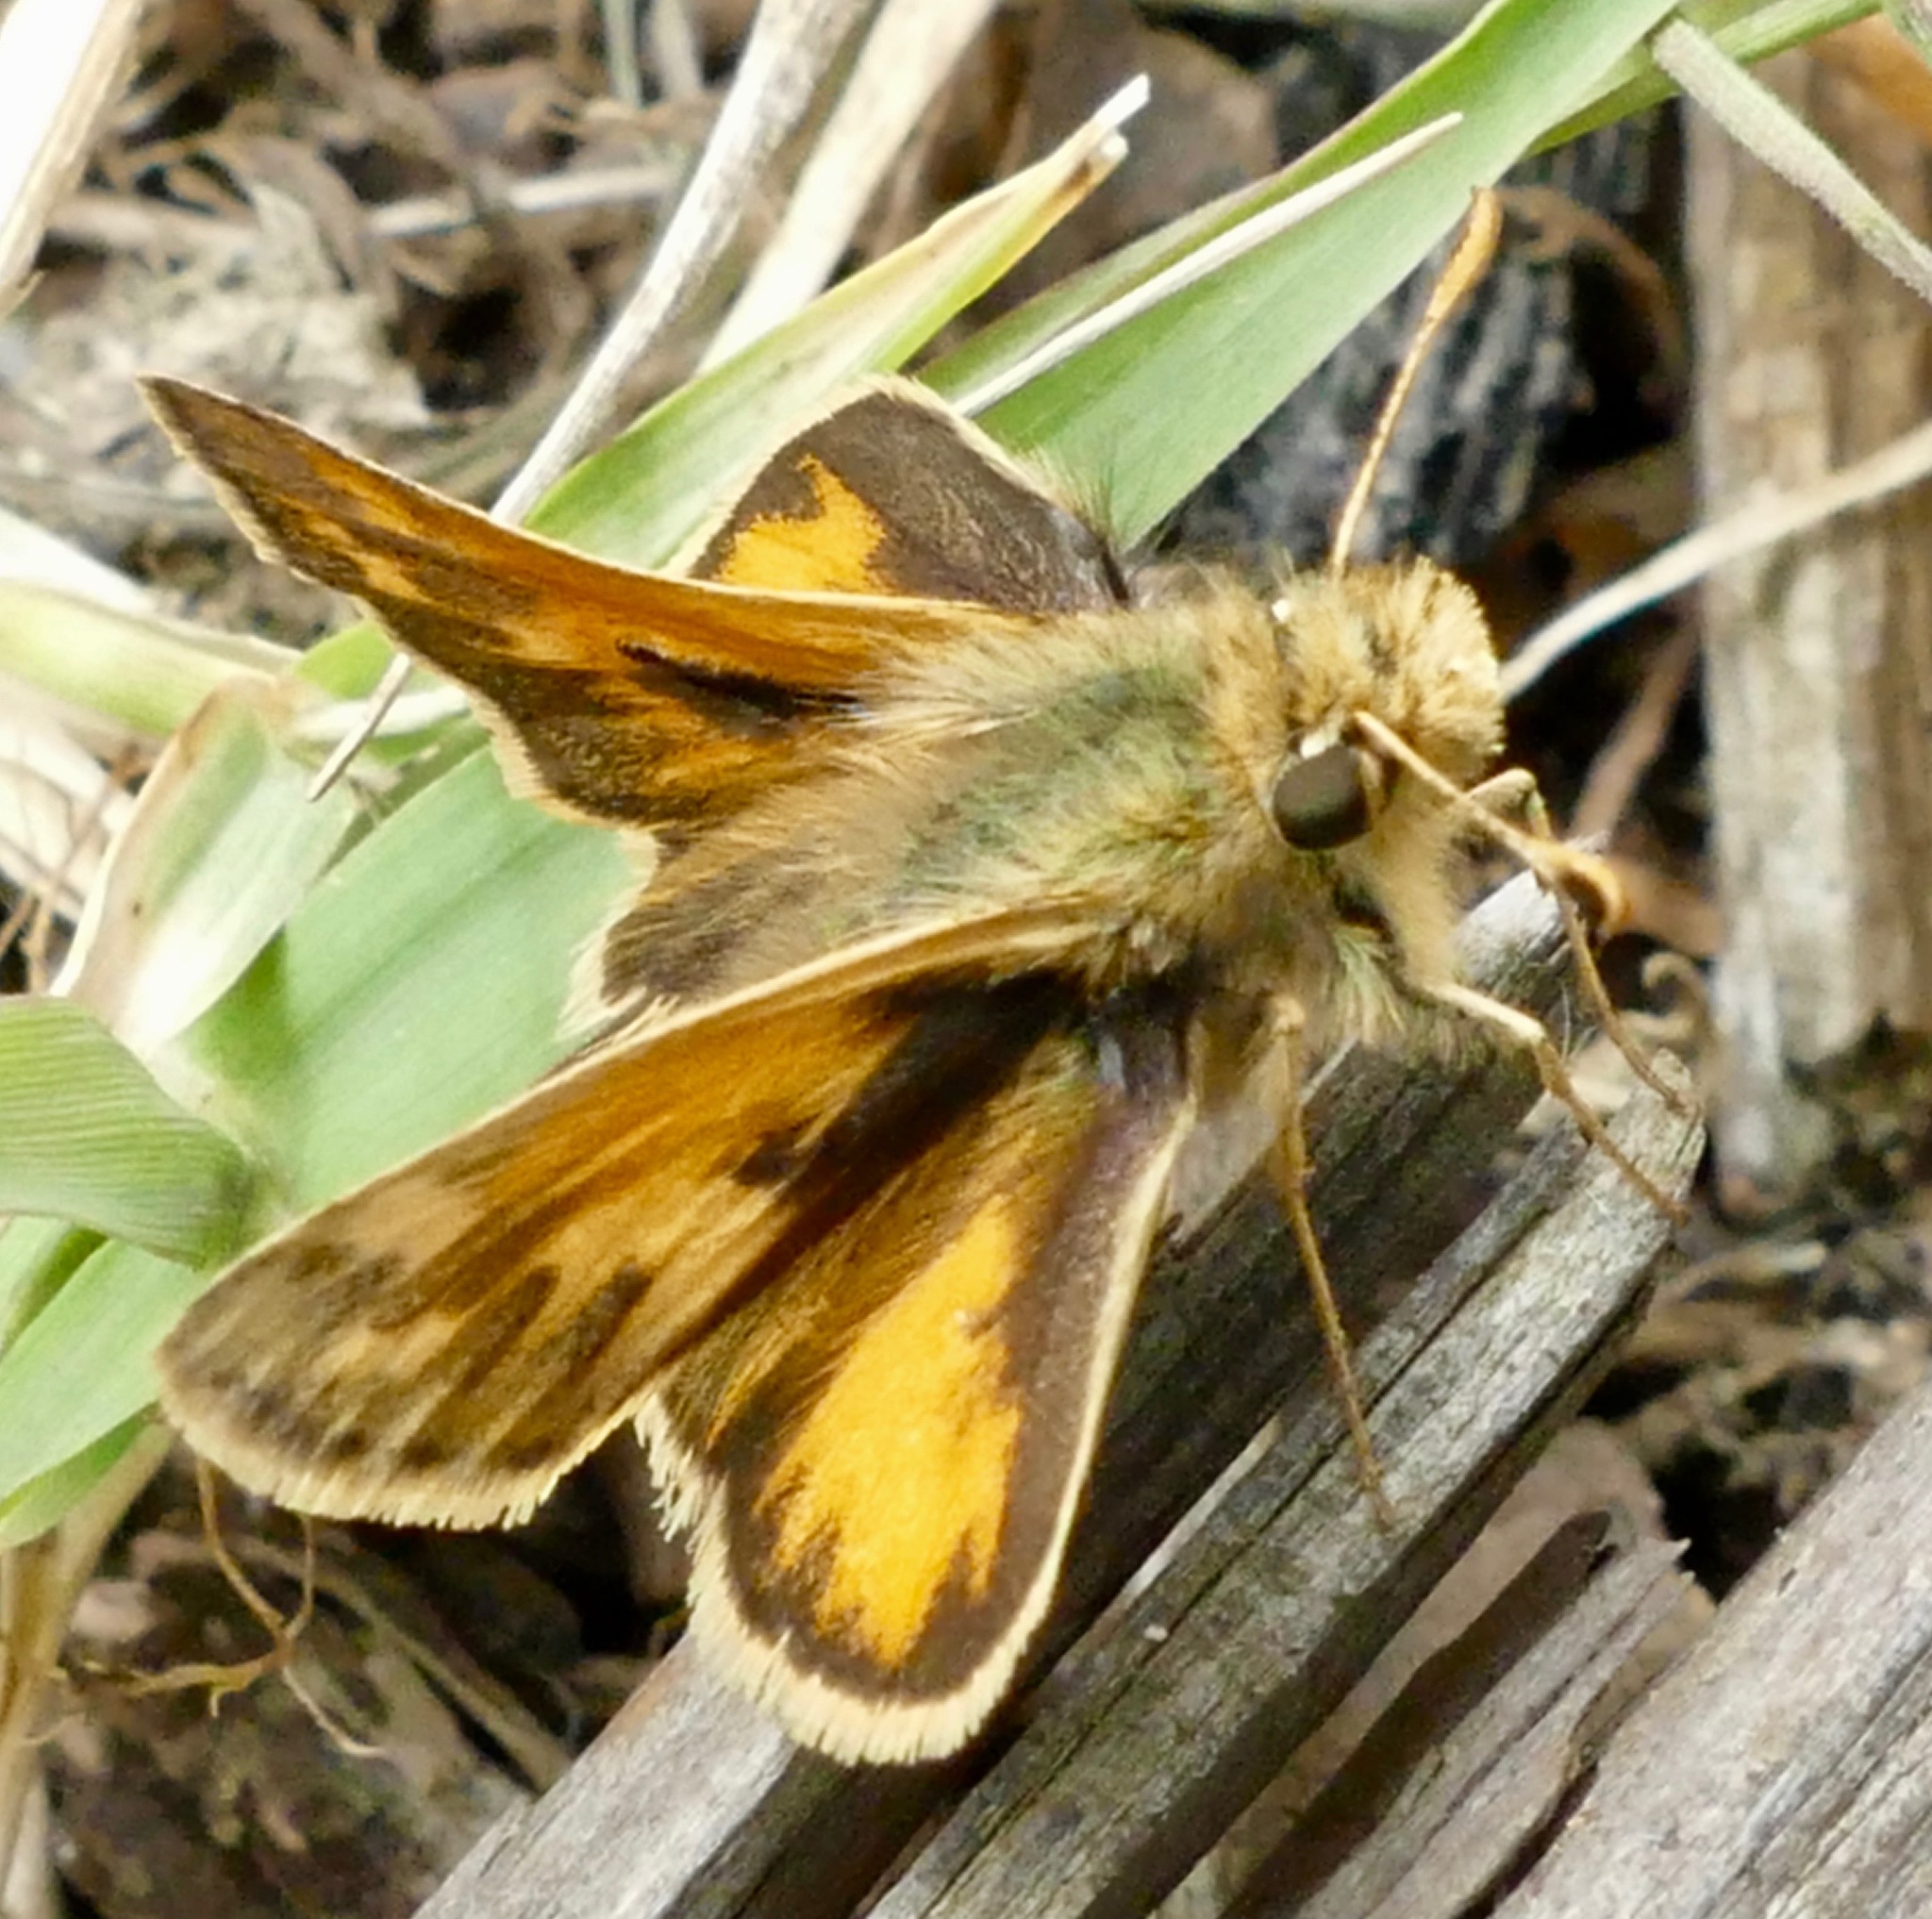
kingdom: Animalia
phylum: Arthropoda
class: Insecta
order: Lepidoptera
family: Hesperiidae
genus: Polites
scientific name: Polites sabuleti
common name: Sandhill skipper
